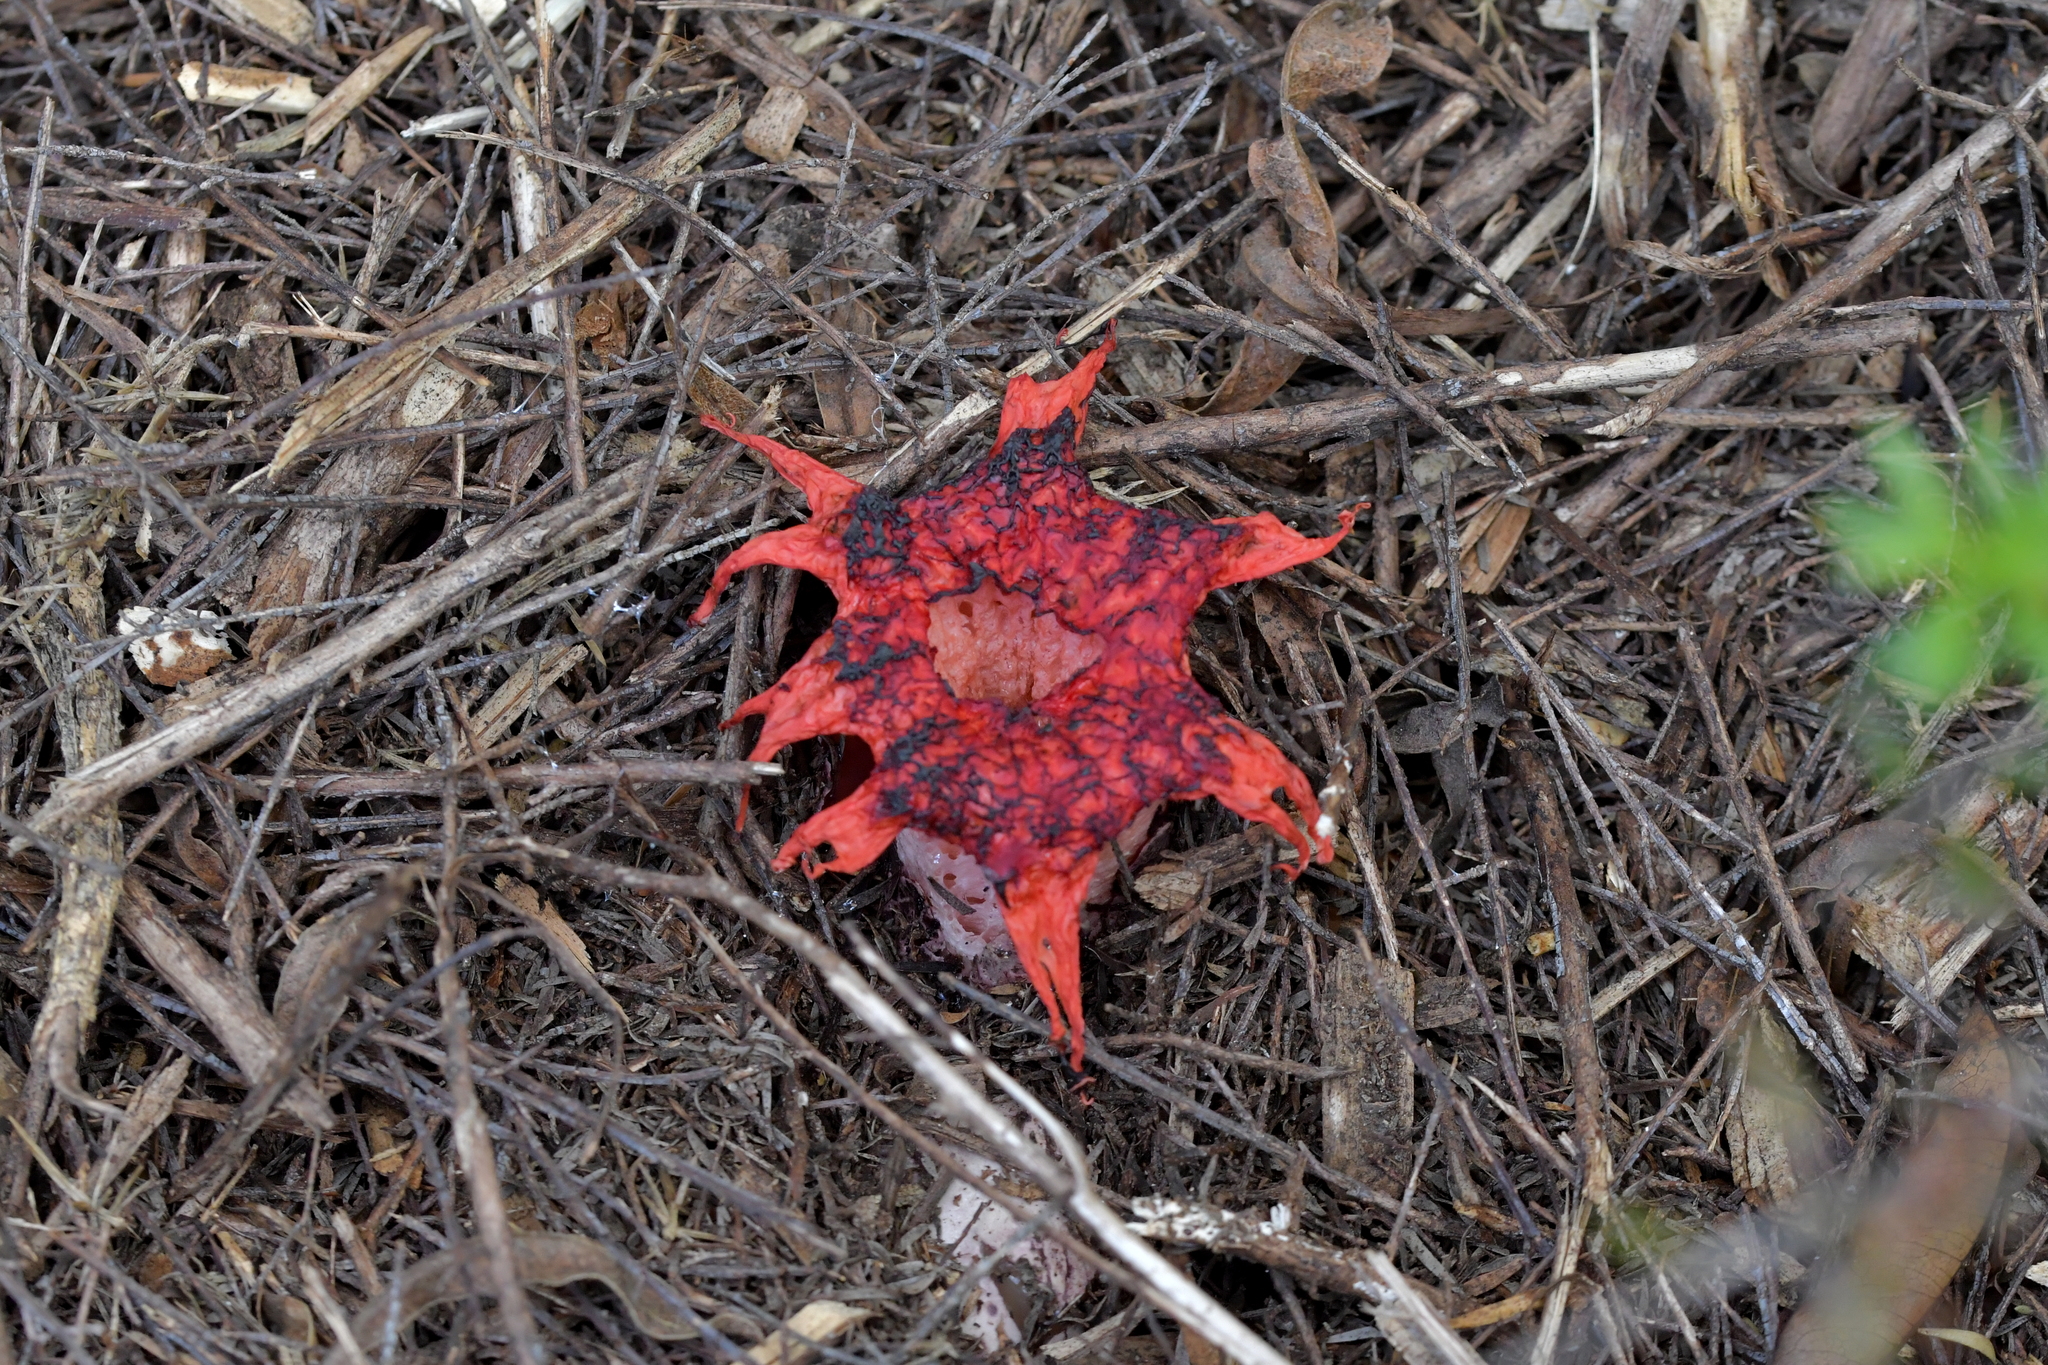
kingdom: Fungi
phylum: Basidiomycota
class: Agaricomycetes
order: Phallales
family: Phallaceae
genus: Aseroe
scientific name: Aseroe rubra
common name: Starfish fungus
